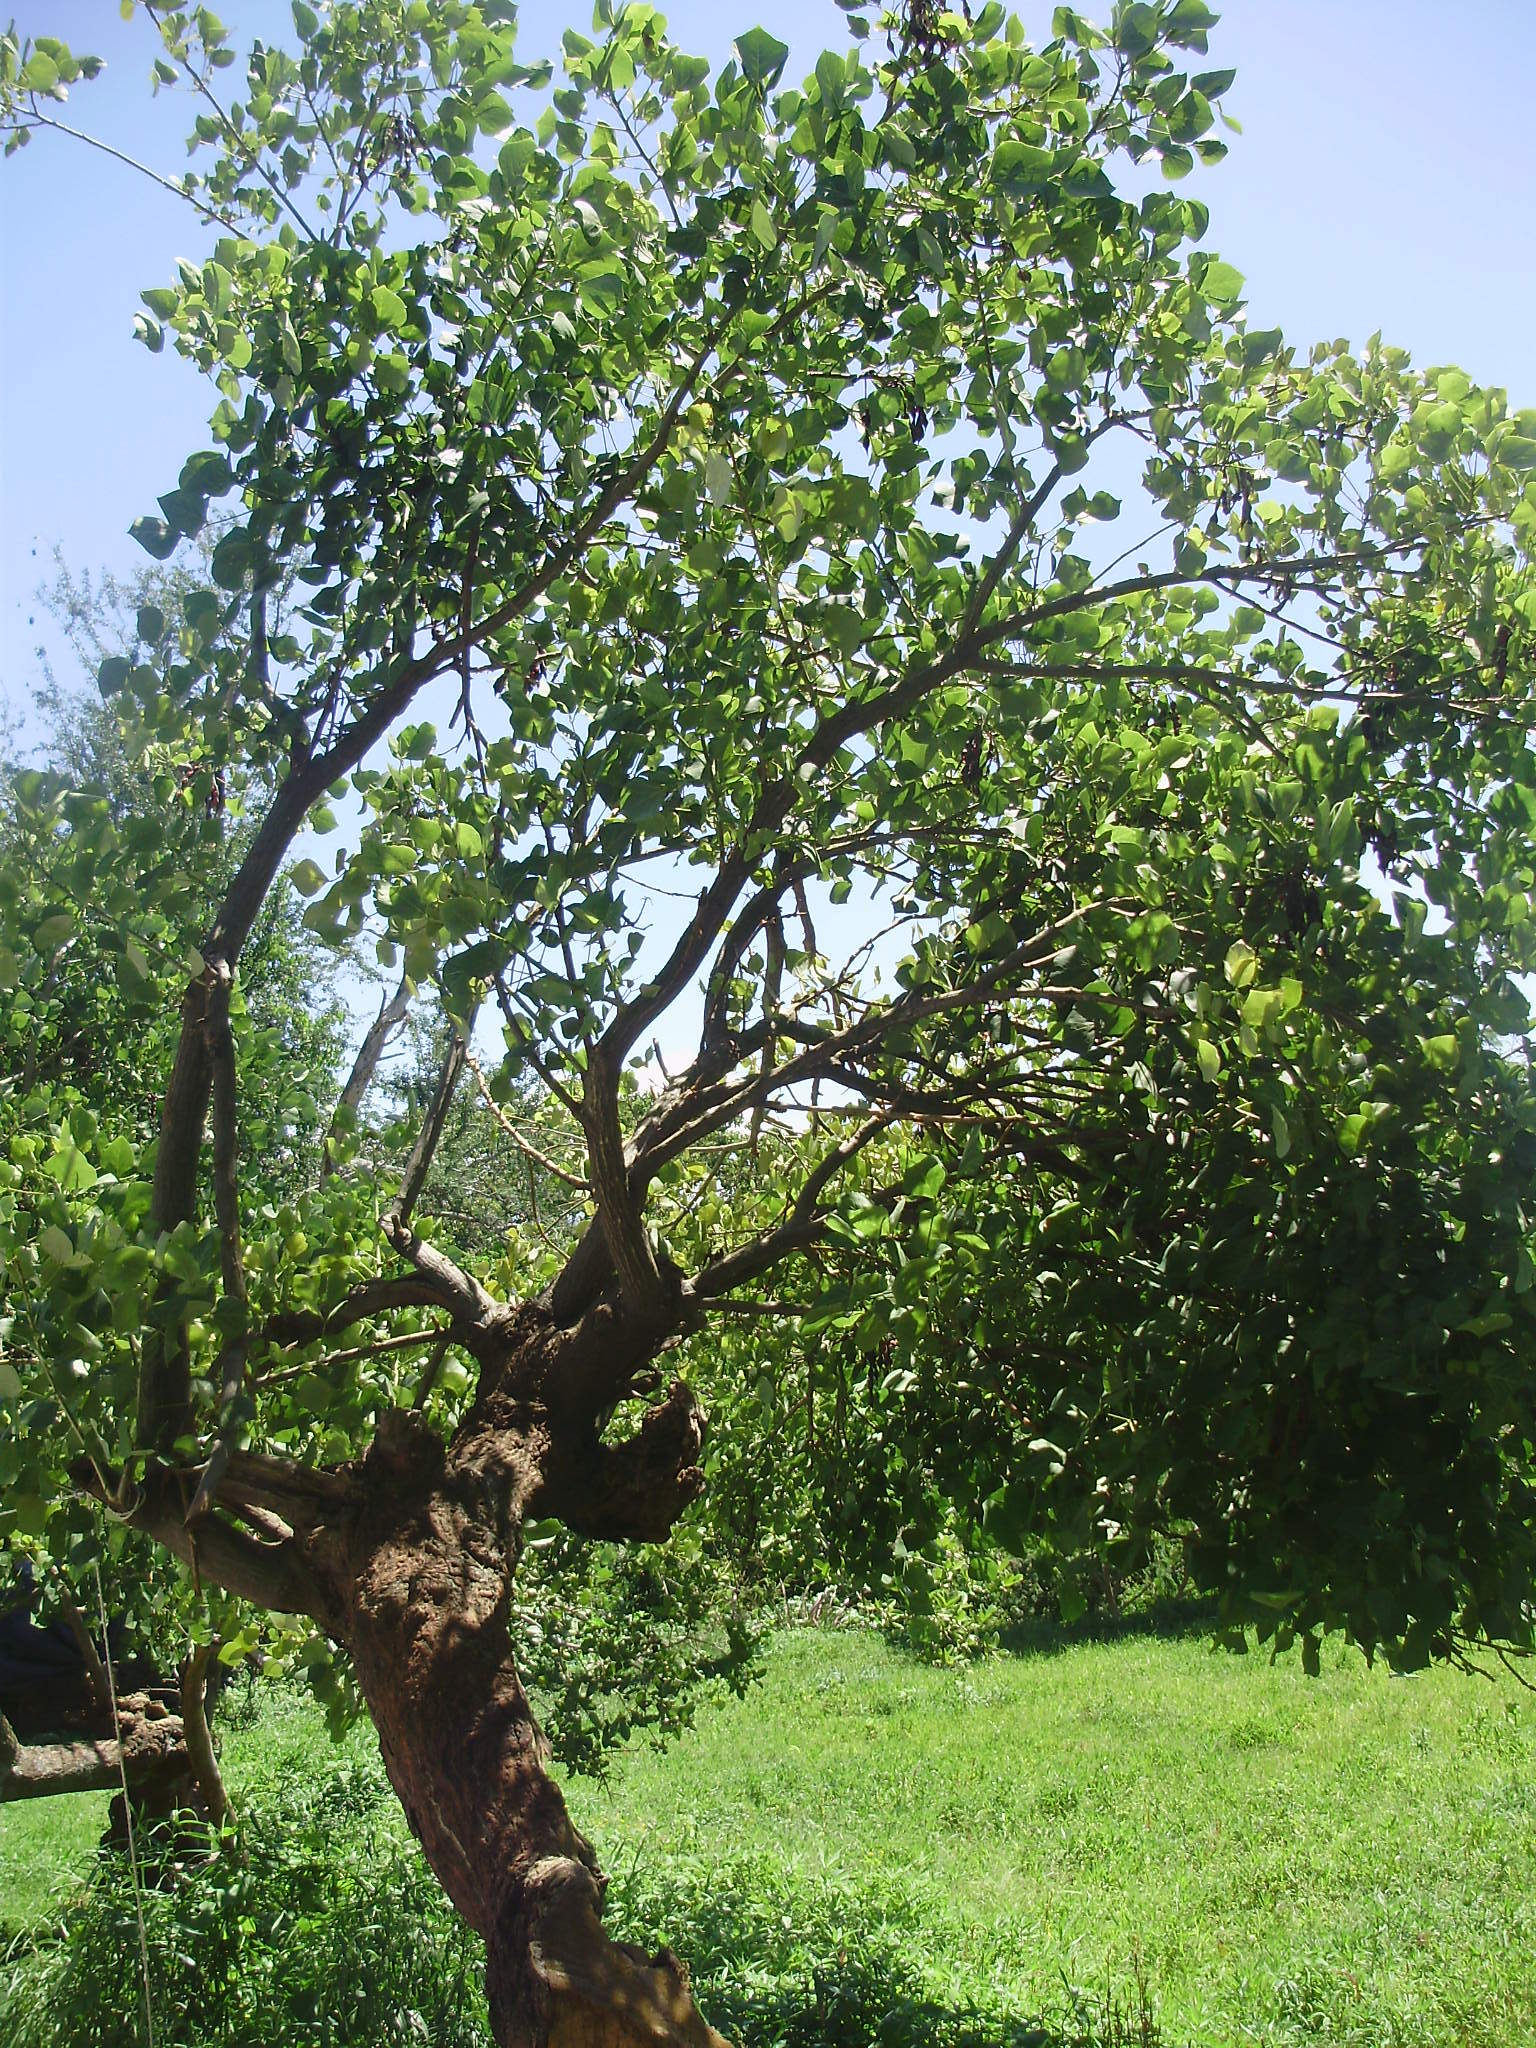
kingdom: Plantae
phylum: Tracheophyta
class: Magnoliopsida
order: Fabales
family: Fabaceae
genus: Erythrina
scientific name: Erythrina americana
